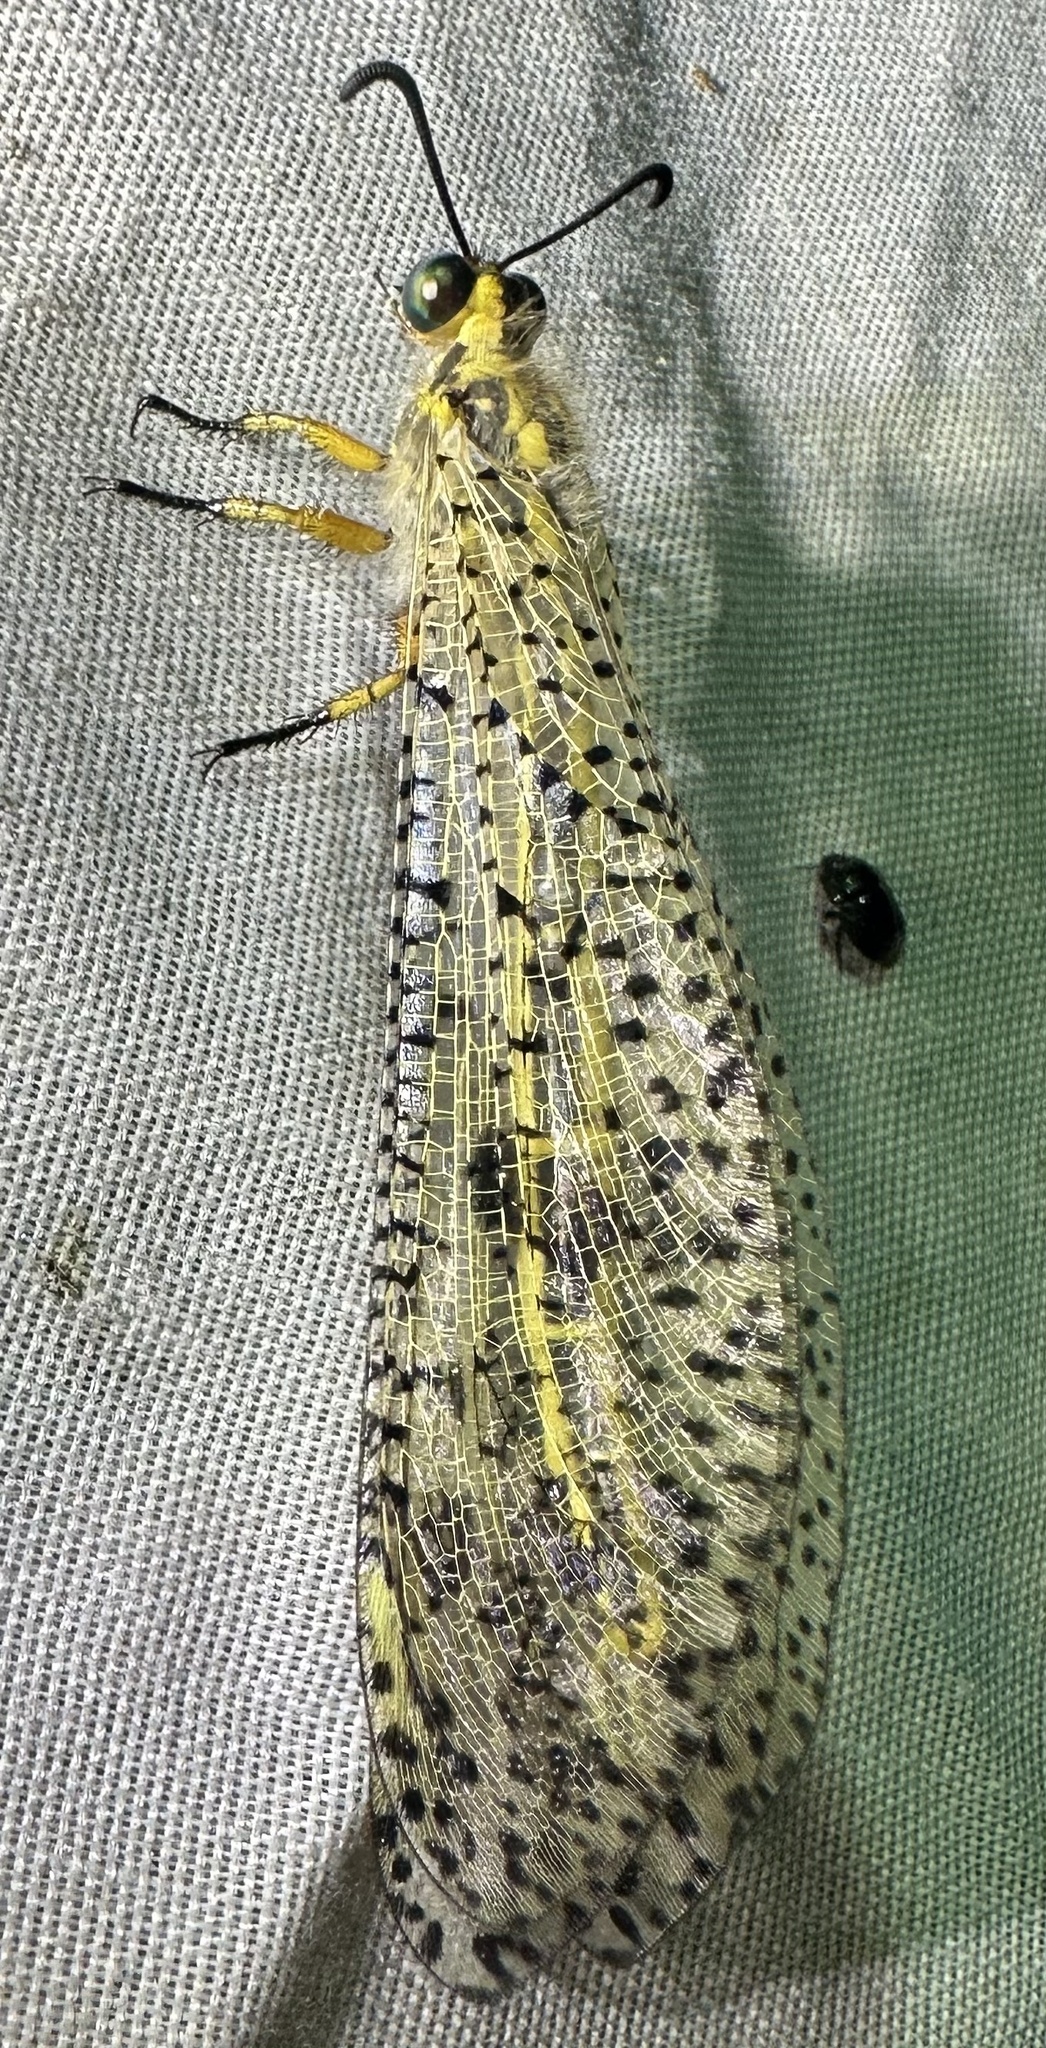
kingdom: Animalia
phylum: Arthropoda
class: Insecta
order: Neuroptera
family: Myrmeleontidae
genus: Palpares
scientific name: Palpares sobrinus
